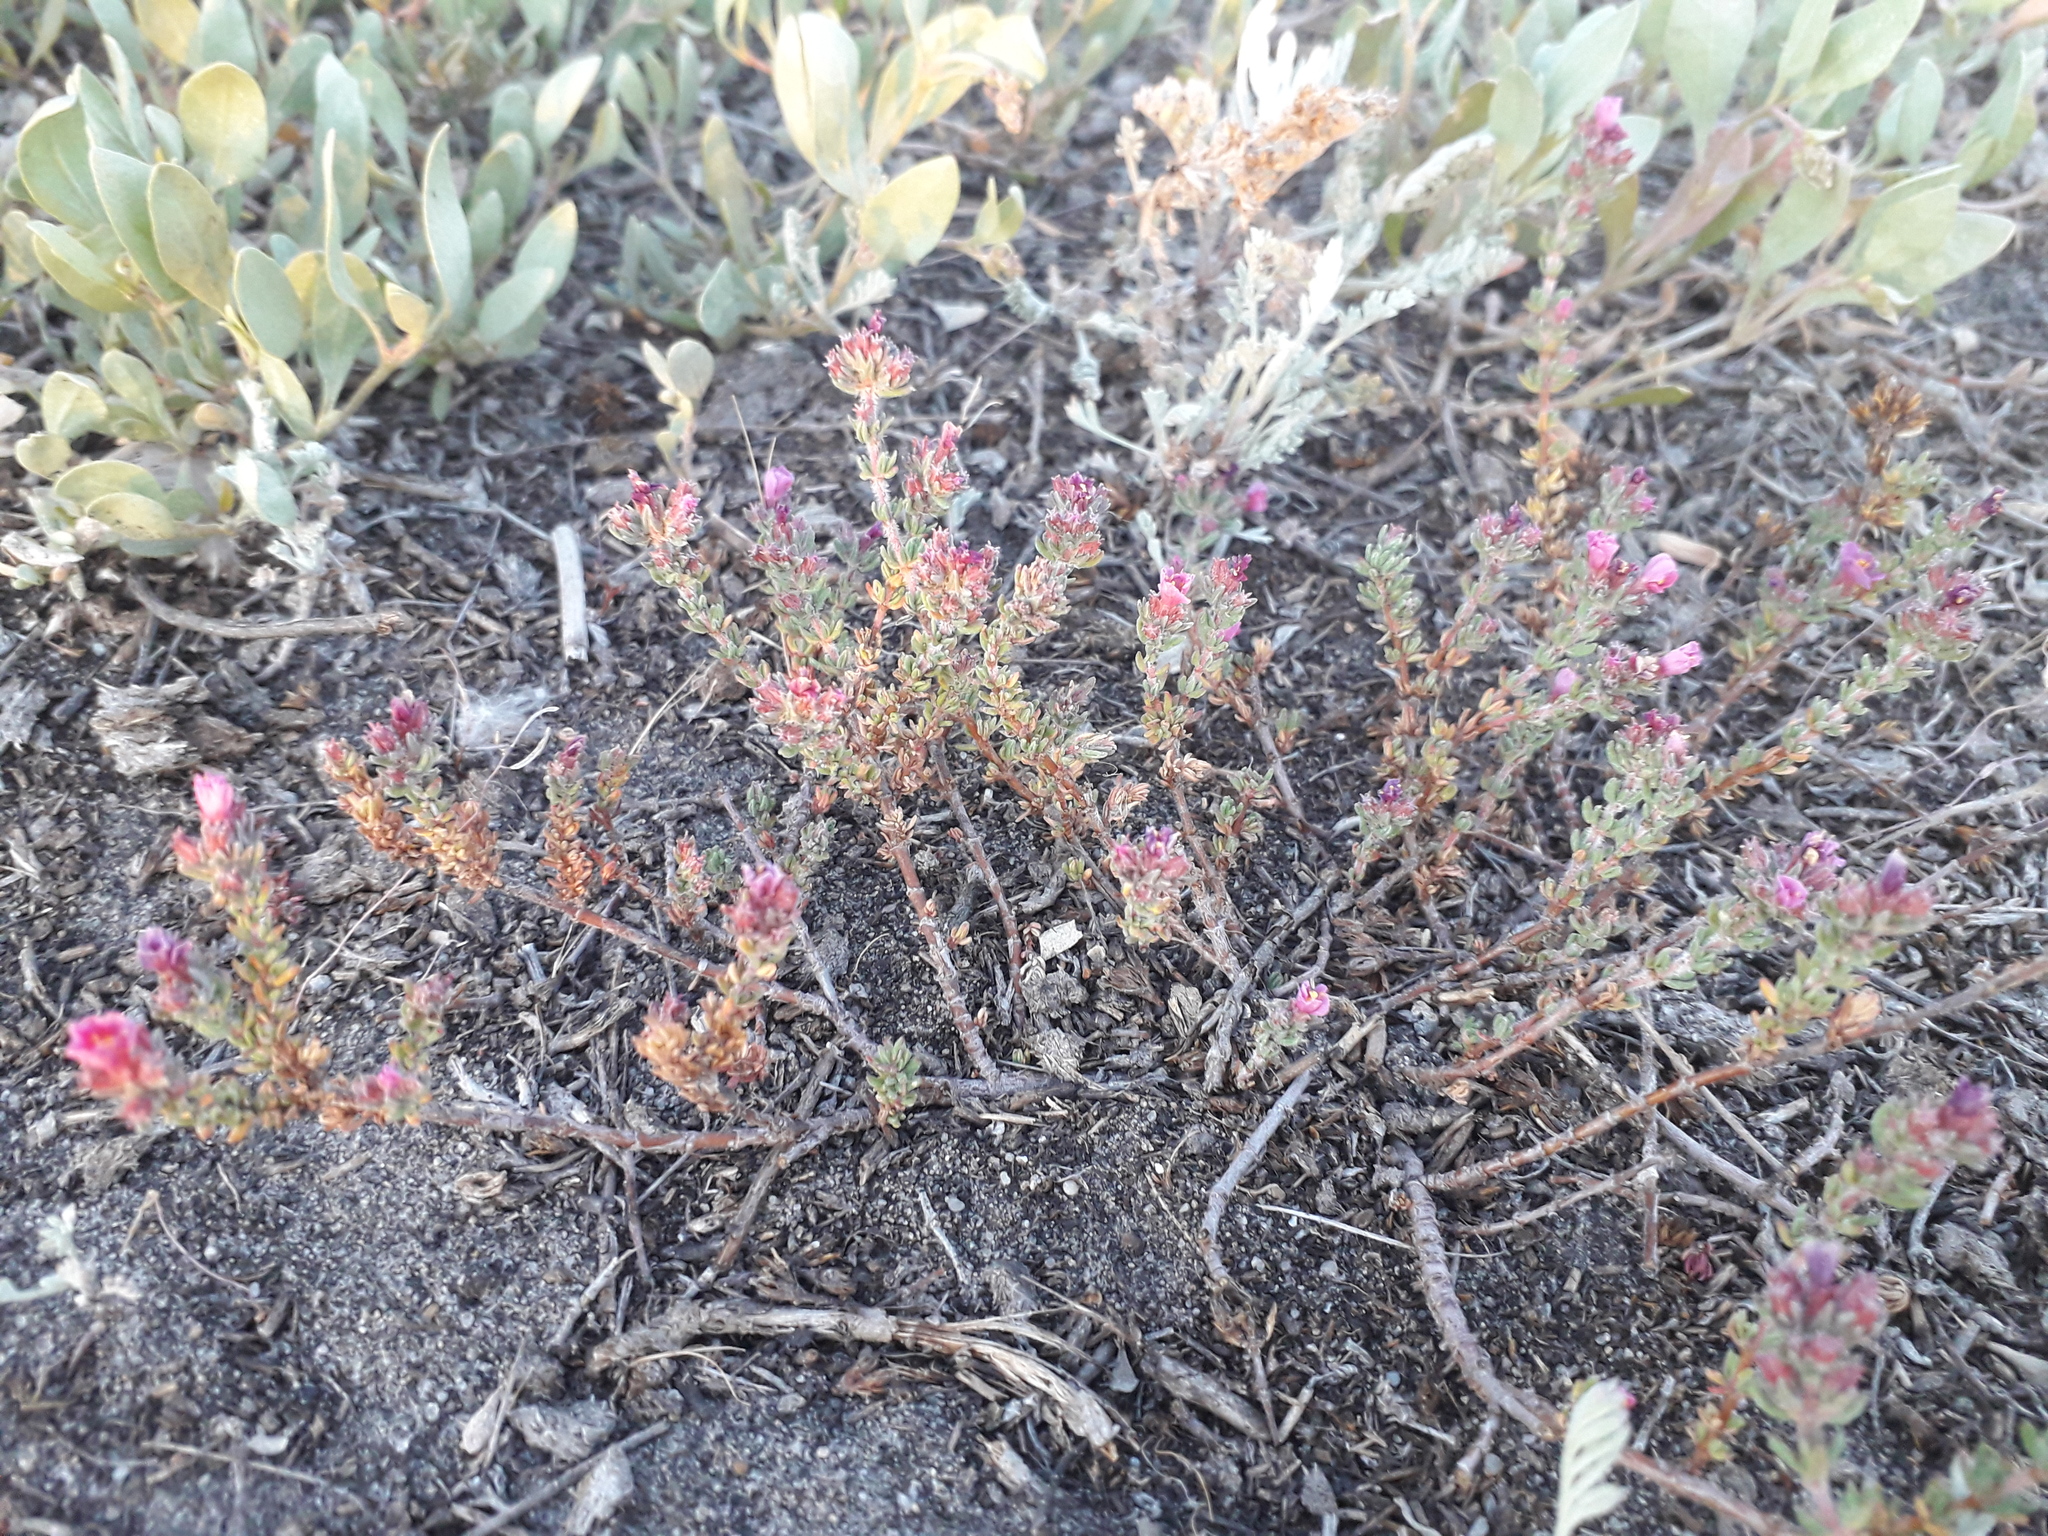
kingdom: Plantae
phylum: Tracheophyta
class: Magnoliopsida
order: Caryophyllales
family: Frankeniaceae
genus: Frankenia
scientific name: Frankenia hirsuta
